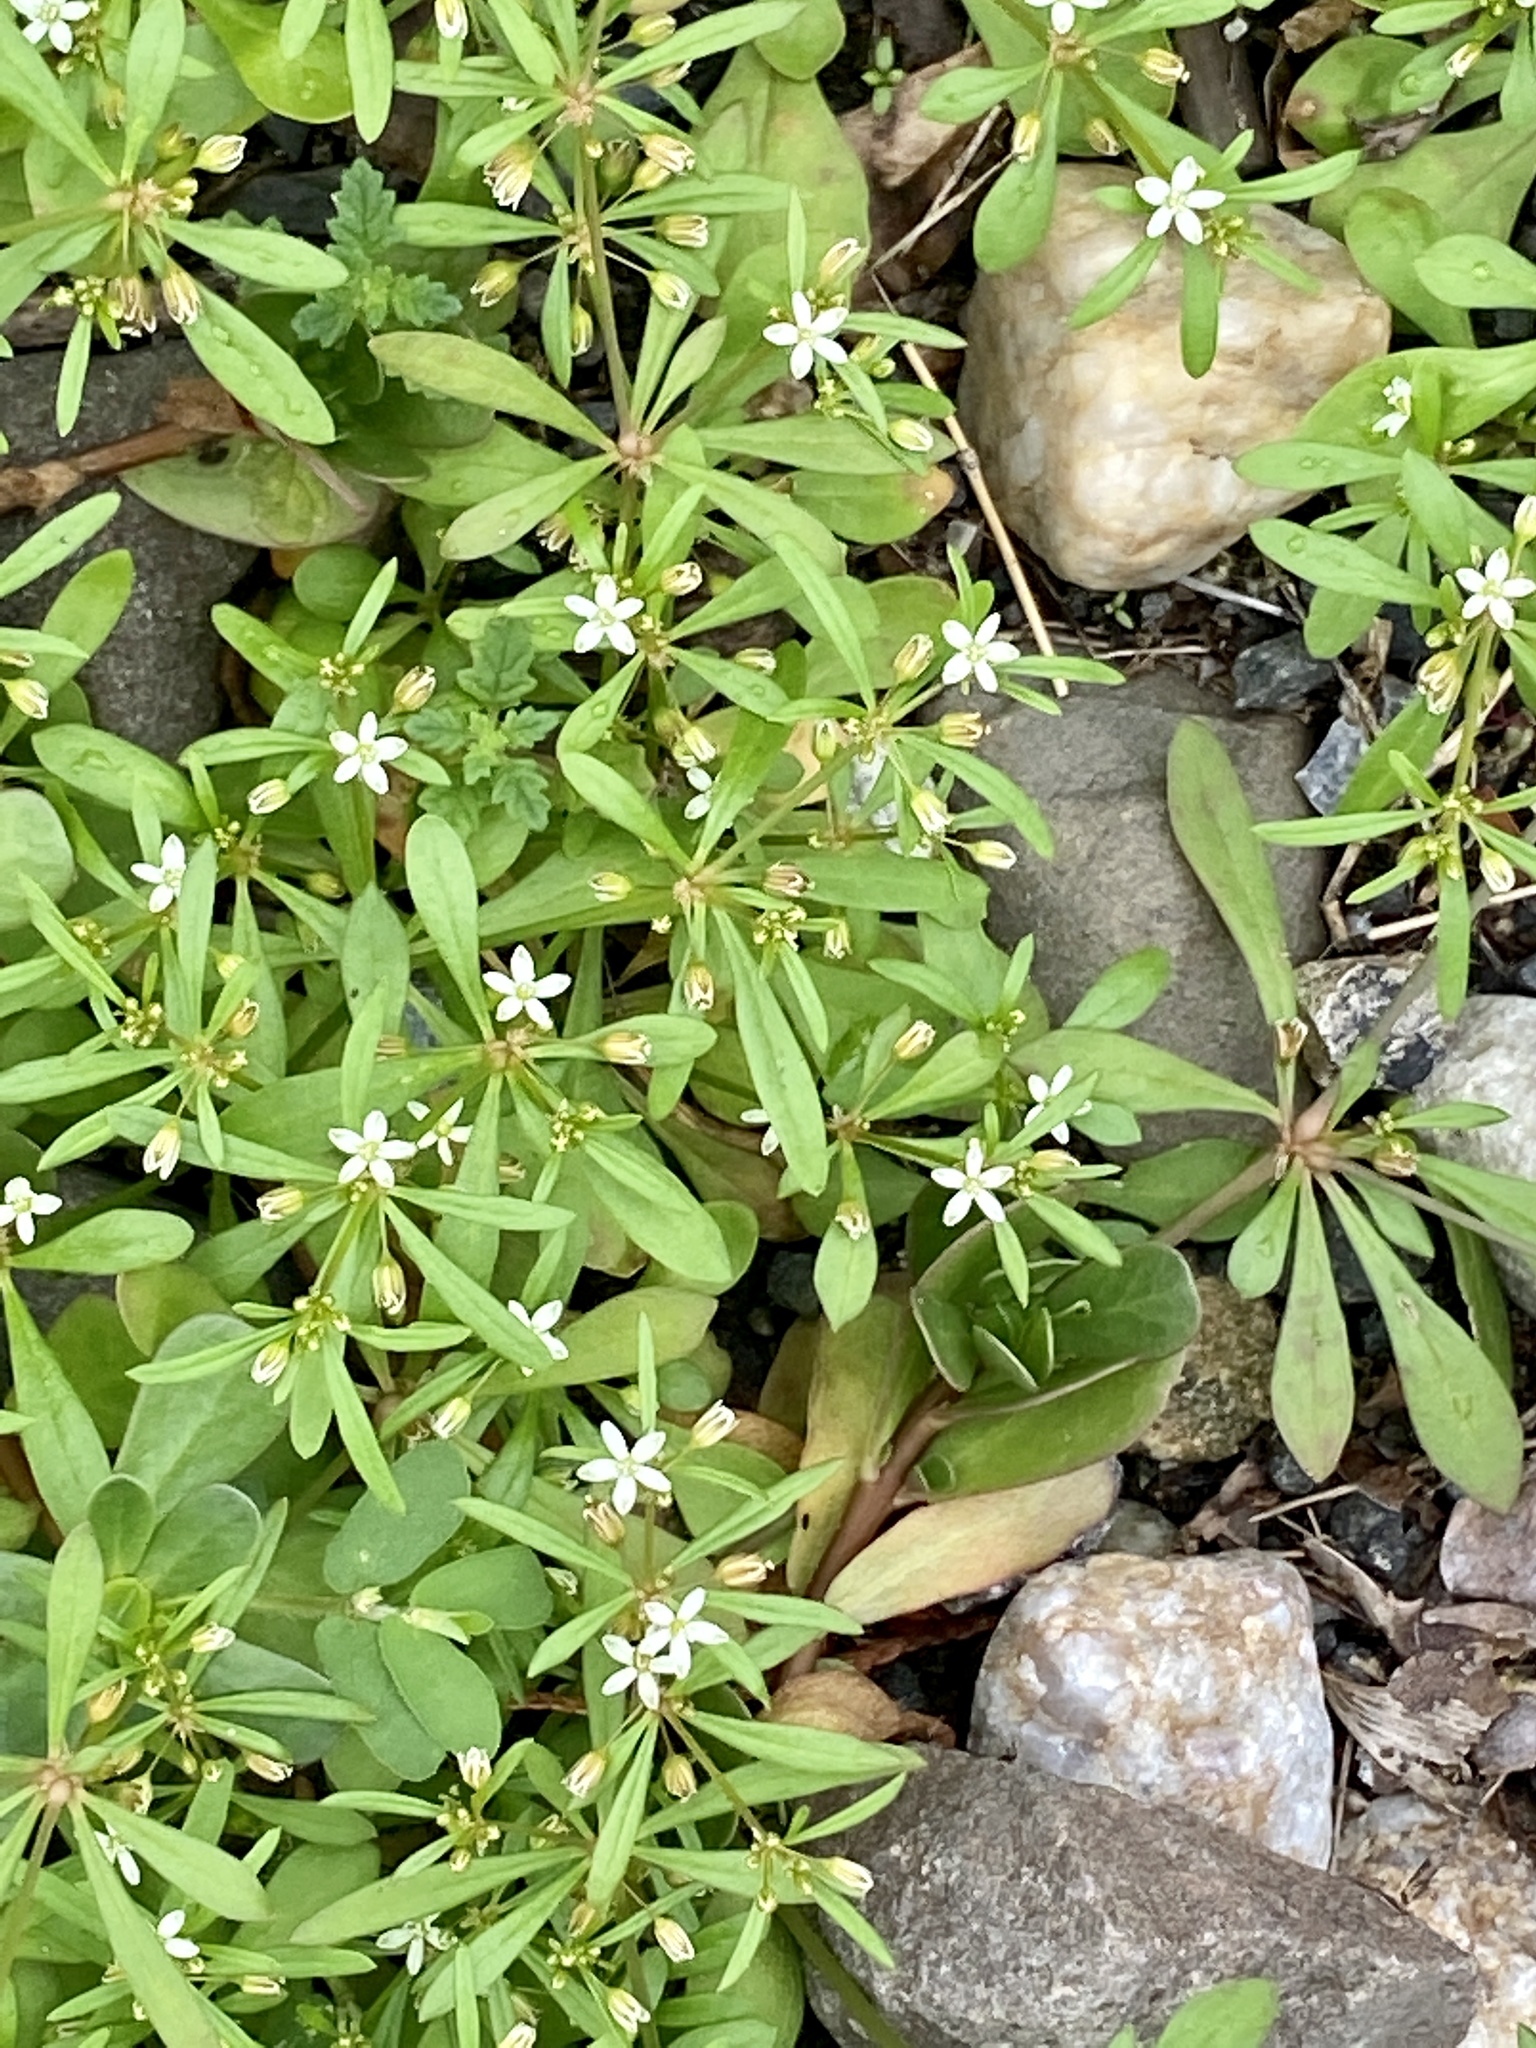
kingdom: Plantae
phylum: Tracheophyta
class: Magnoliopsida
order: Caryophyllales
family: Molluginaceae
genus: Mollugo
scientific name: Mollugo verticillata
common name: Green carpetweed
